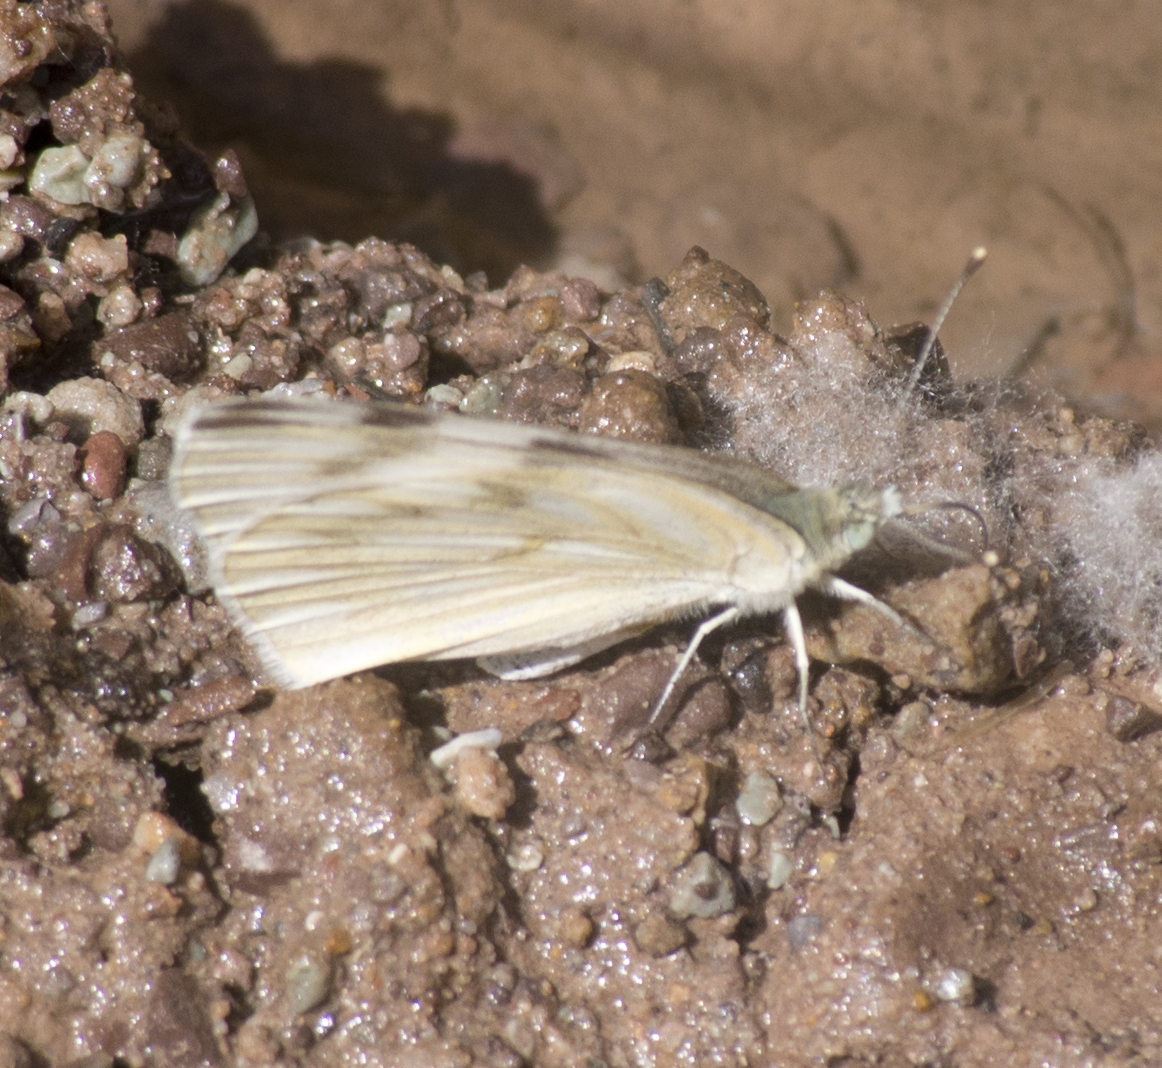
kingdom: Animalia
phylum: Arthropoda
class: Insecta
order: Lepidoptera
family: Pieridae
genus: Pontia
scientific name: Pontia protodice
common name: Checkered white
